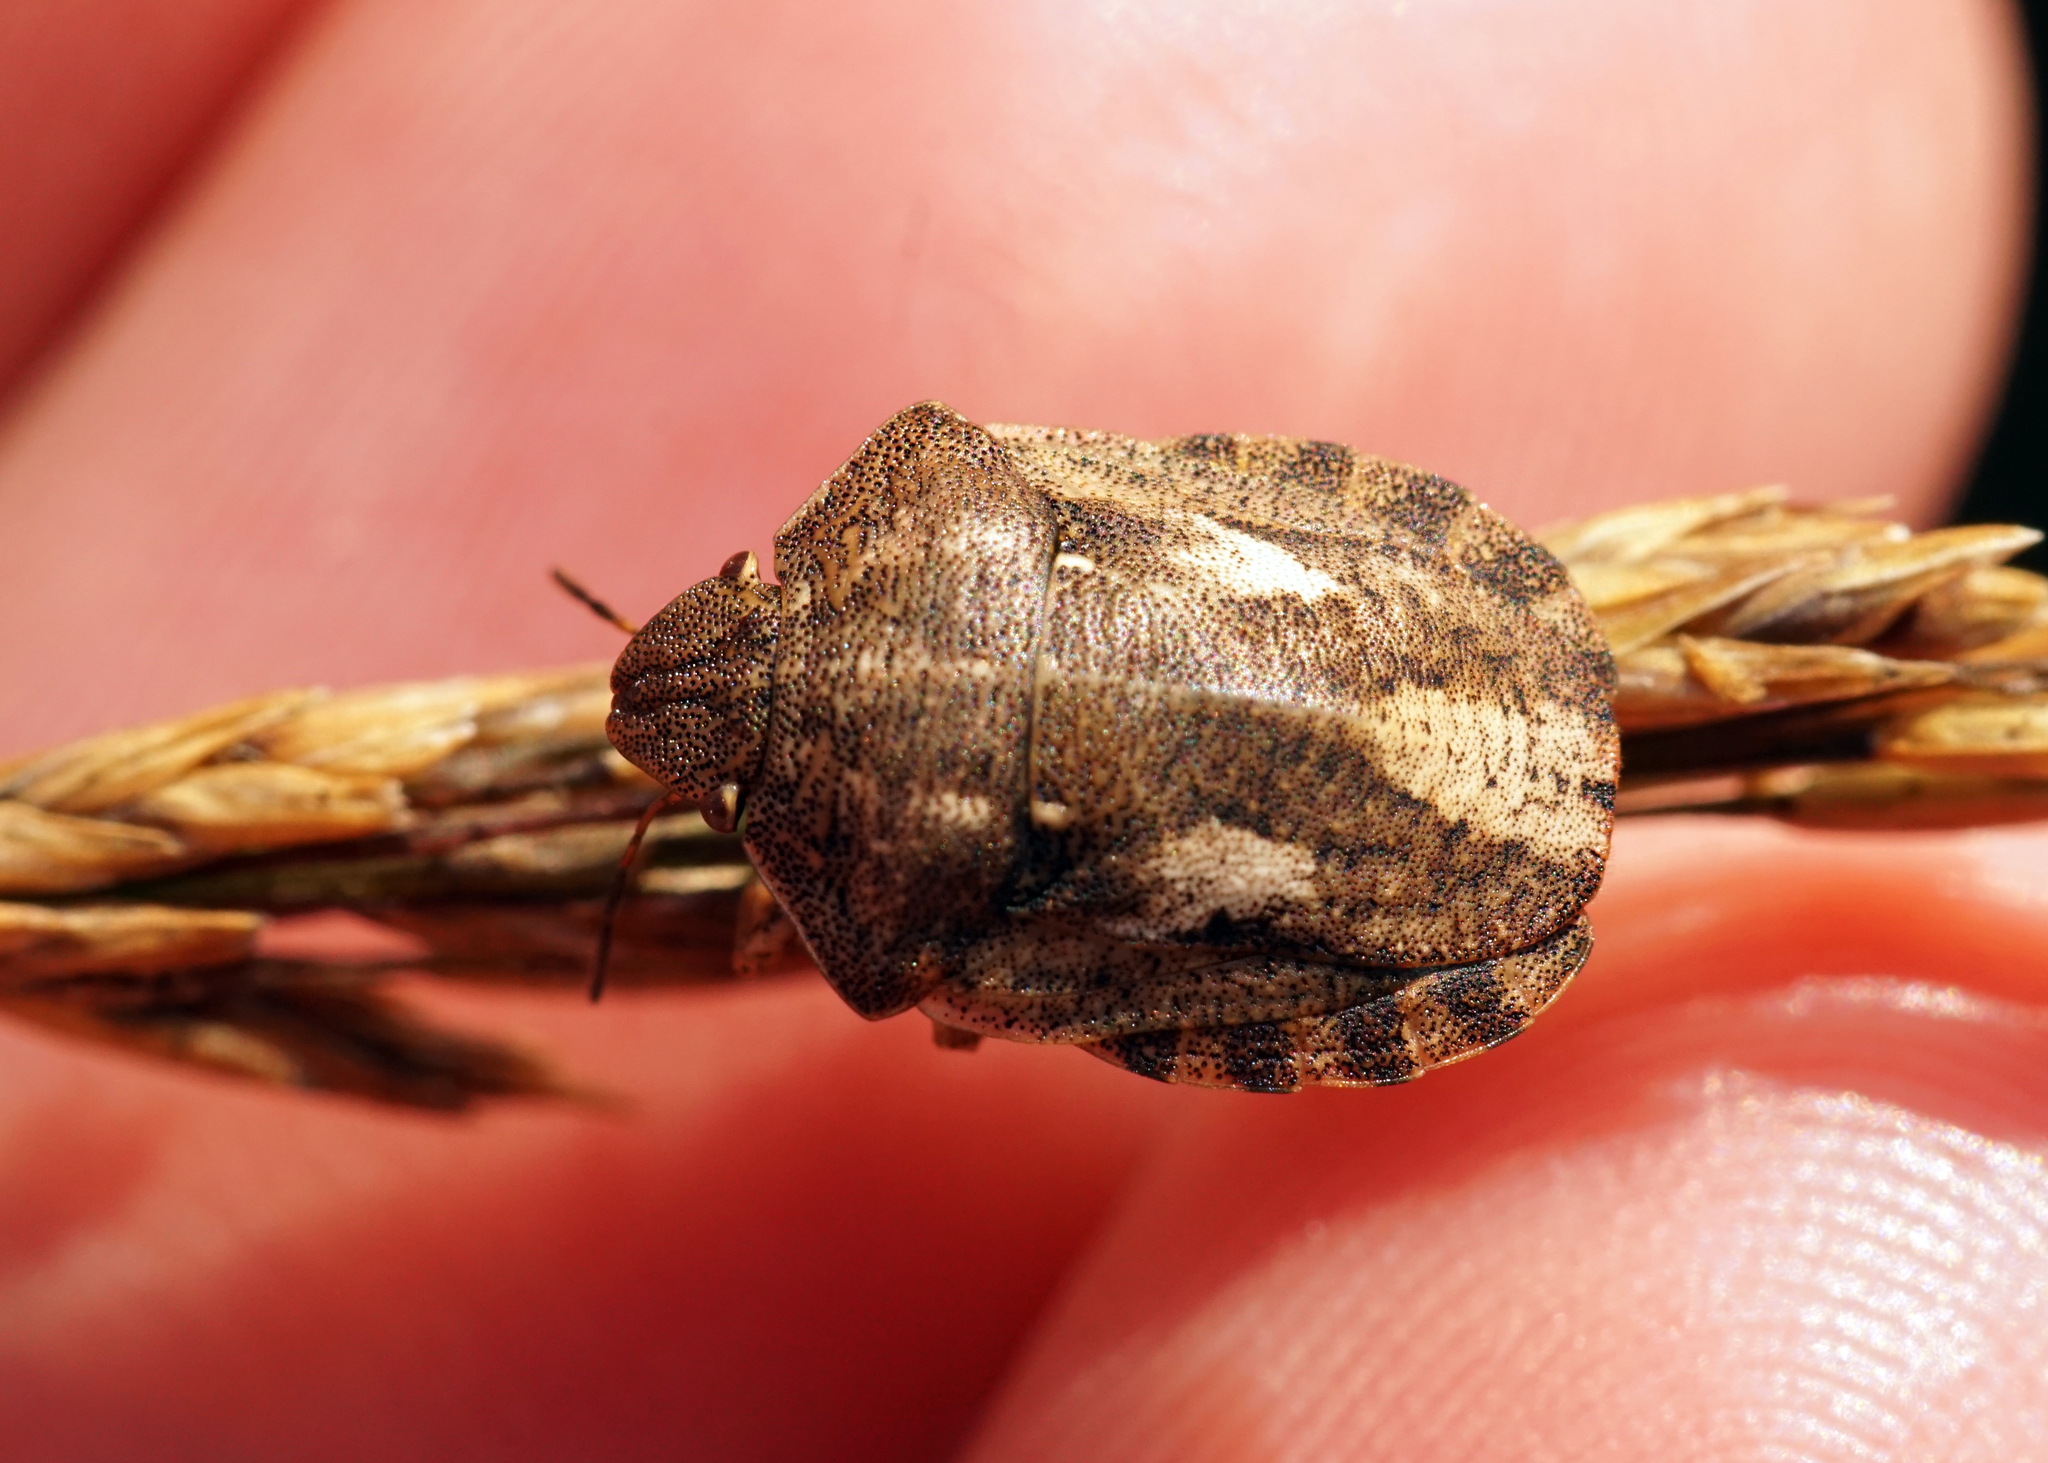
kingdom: Animalia
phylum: Arthropoda
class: Insecta
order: Hemiptera
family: Scutelleridae
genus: Eurygaster
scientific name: Eurygaster testudinaria
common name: Tortoise bug
